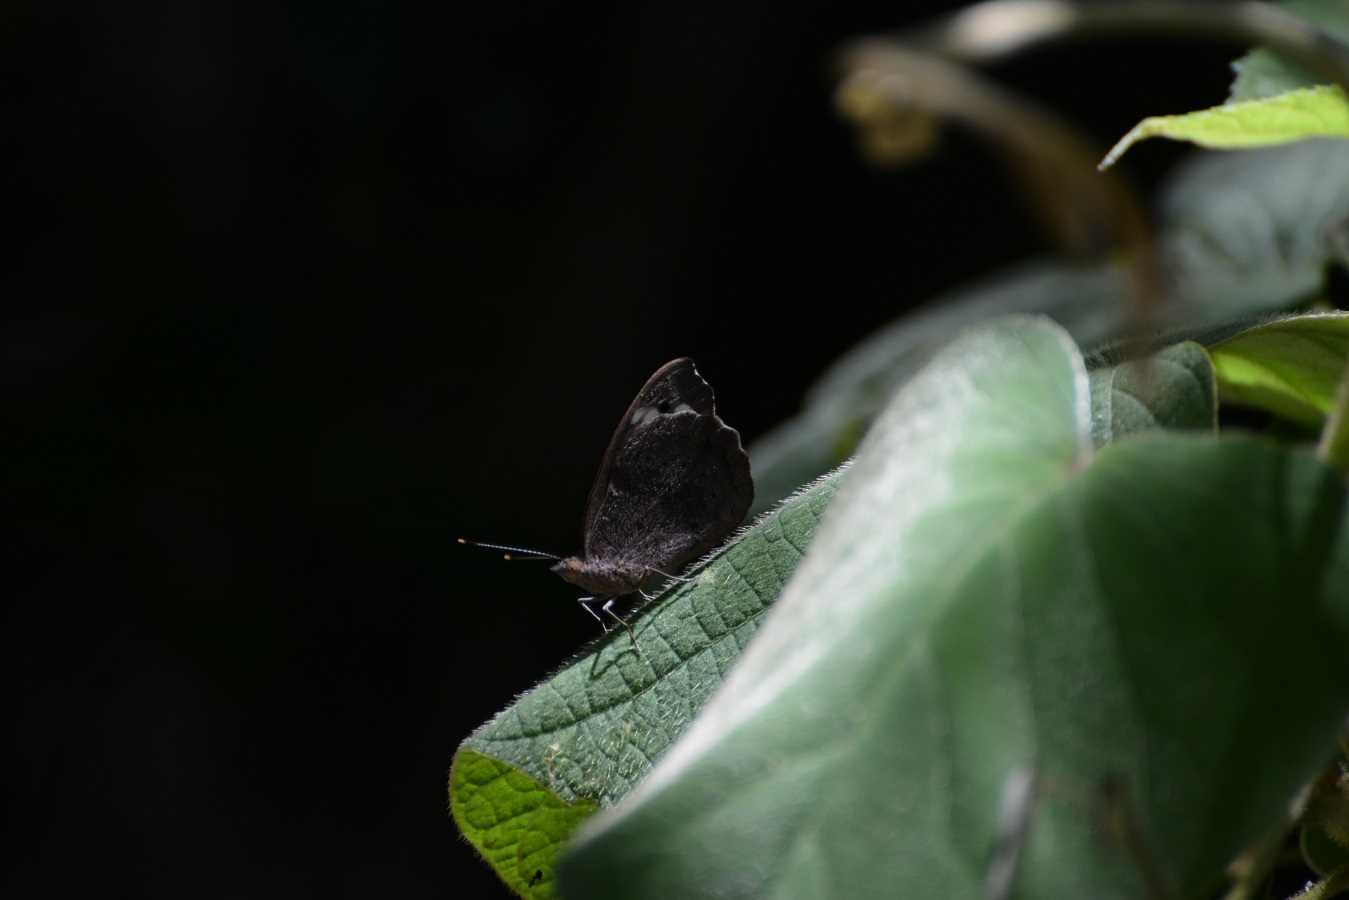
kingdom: Animalia
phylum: Arthropoda
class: Insecta
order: Lepidoptera
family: Nymphalidae
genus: Eunica
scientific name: Eunica tatila
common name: Florida purplewing
